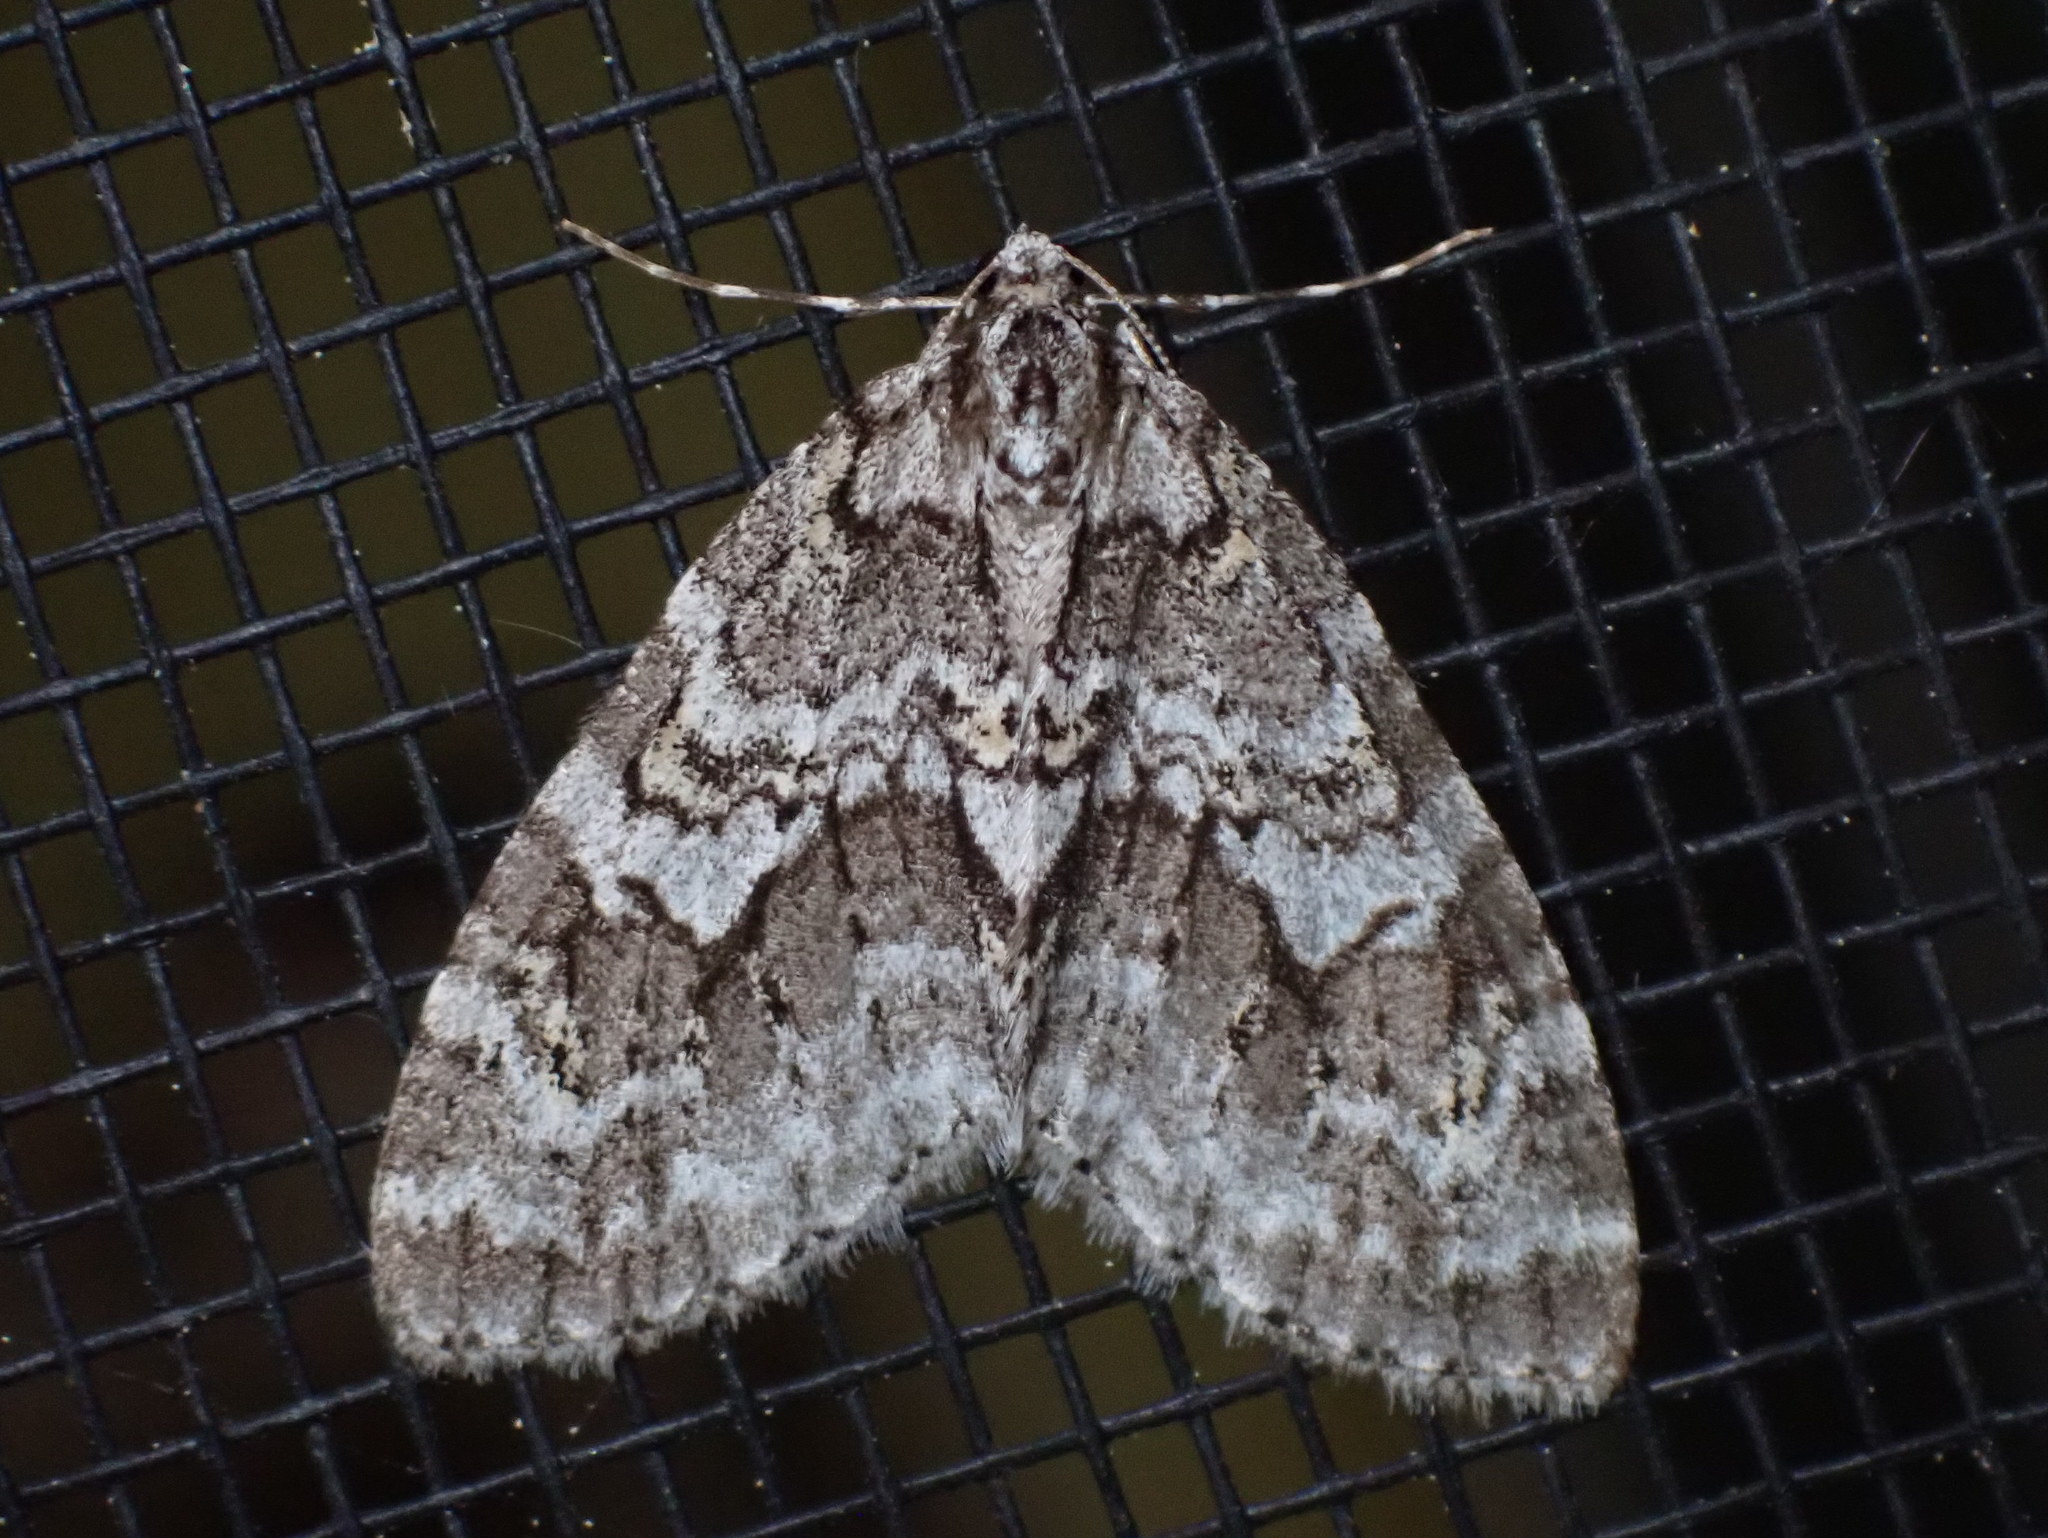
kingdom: Animalia
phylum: Arthropoda
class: Insecta
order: Lepidoptera
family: Geometridae
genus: Cladara
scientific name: Cladara limitaria
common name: Mottled gray carpet
